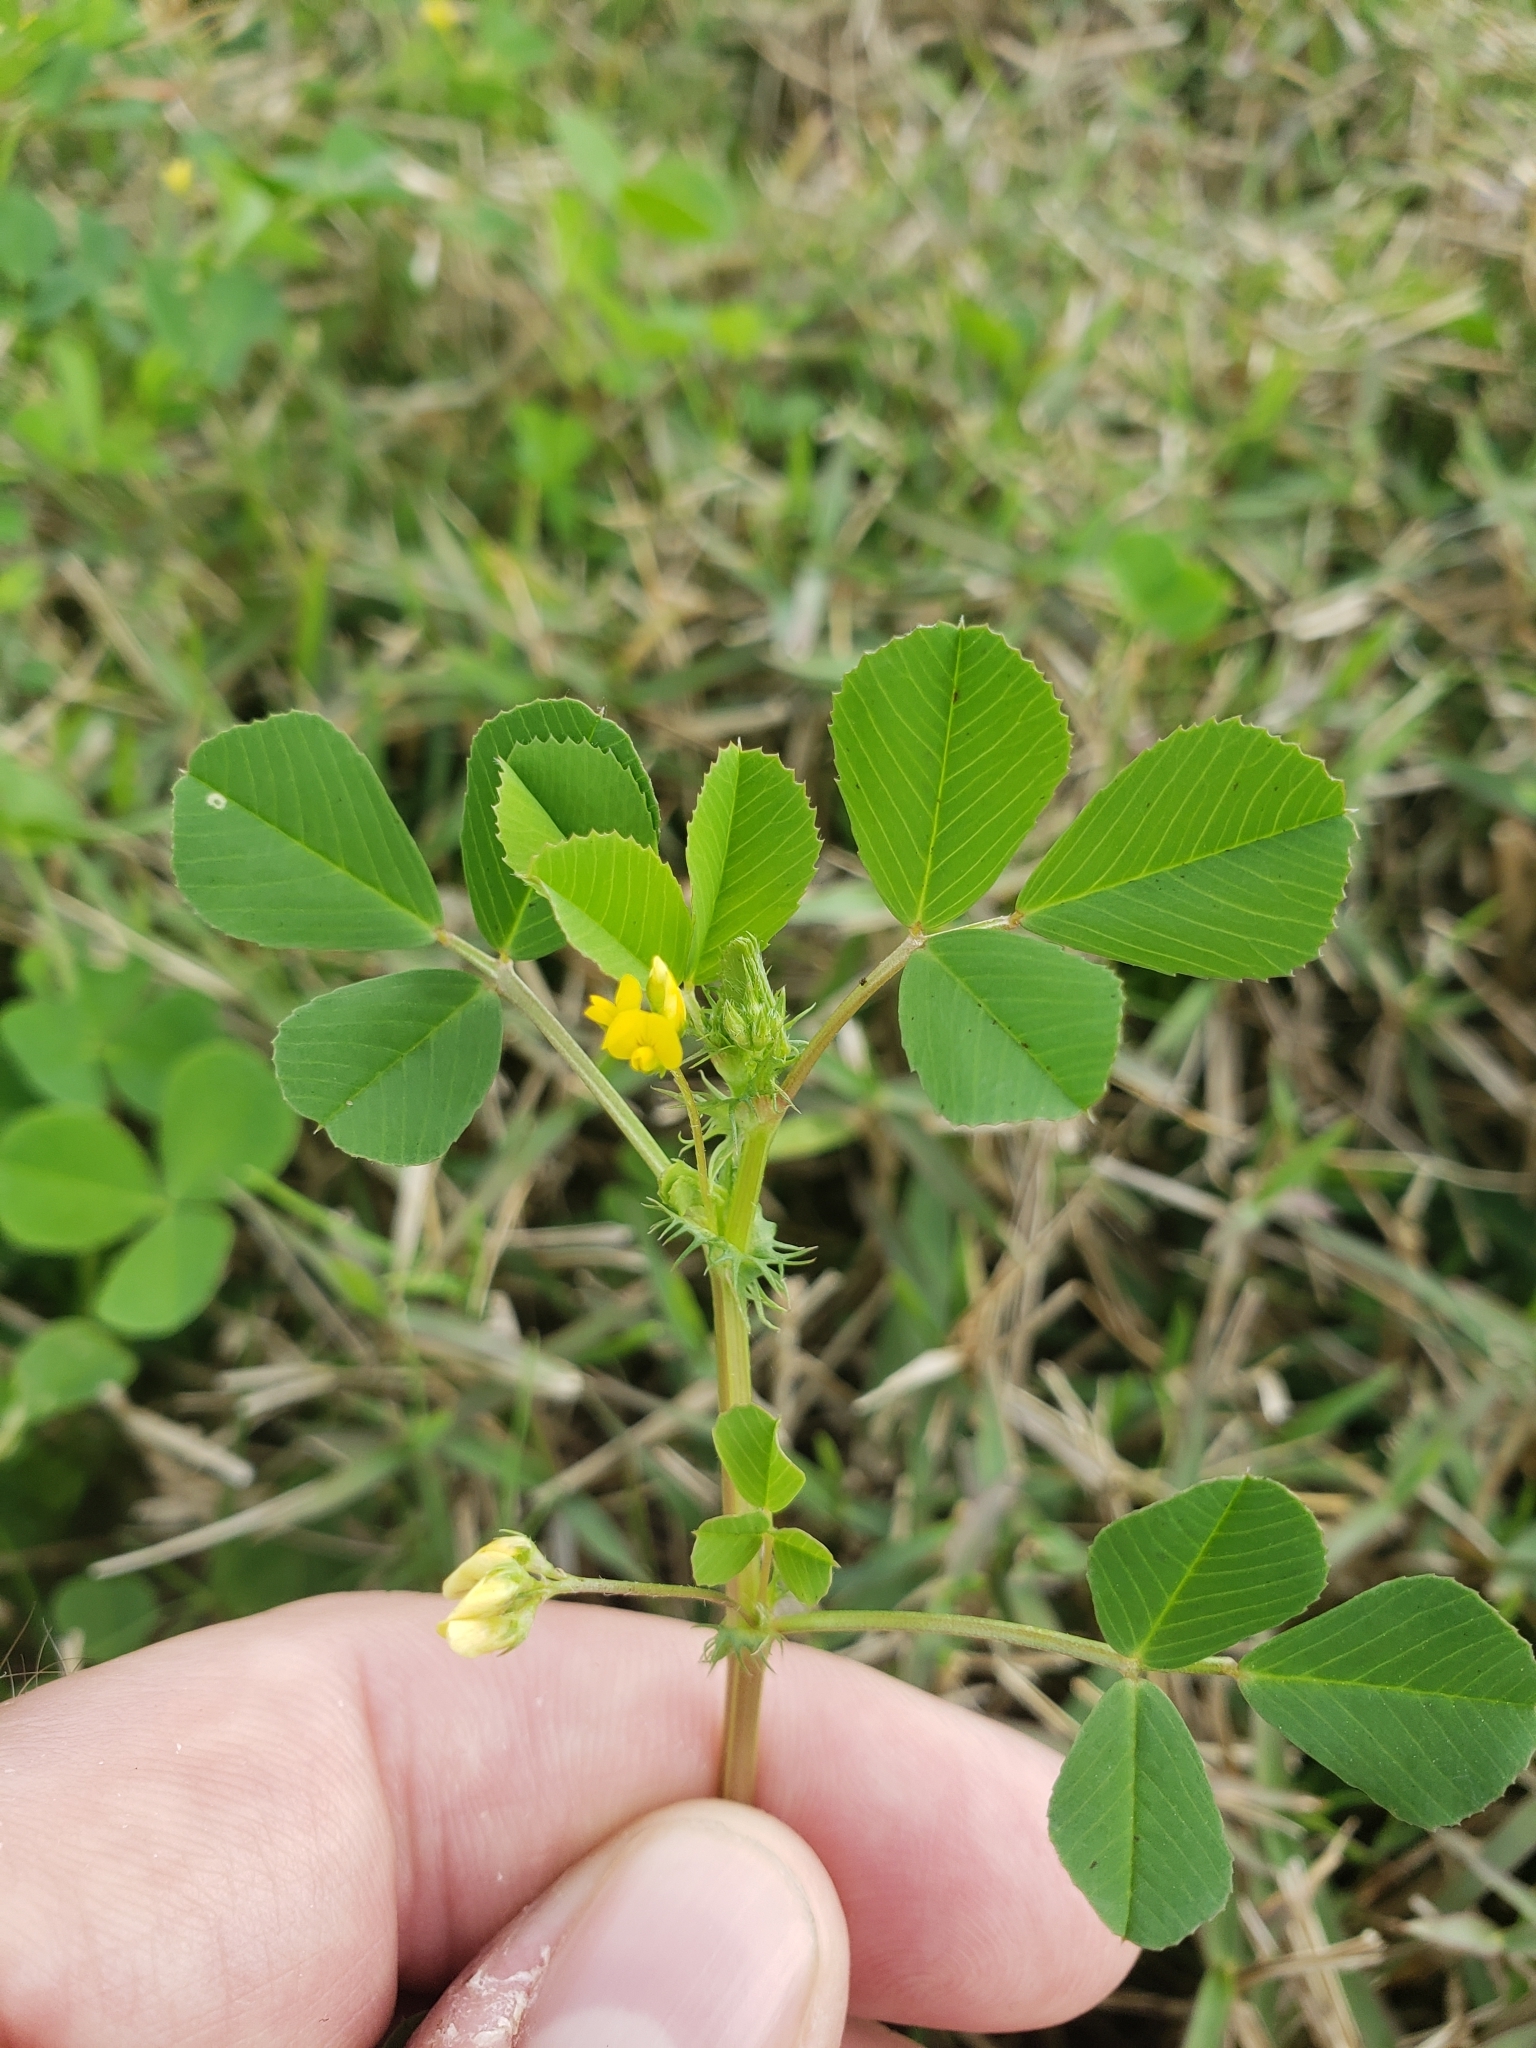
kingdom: Plantae
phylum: Tracheophyta
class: Magnoliopsida
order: Fabales
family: Fabaceae
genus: Medicago
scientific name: Medicago polymorpha
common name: Burclover
